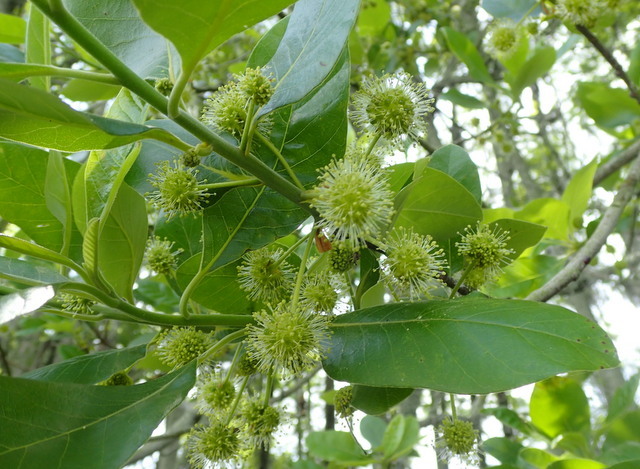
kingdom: Plantae
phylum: Tracheophyta
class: Magnoliopsida
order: Cornales
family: Nyssaceae
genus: Nyssa
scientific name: Nyssa ogeche
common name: Ogeechee tupelo
